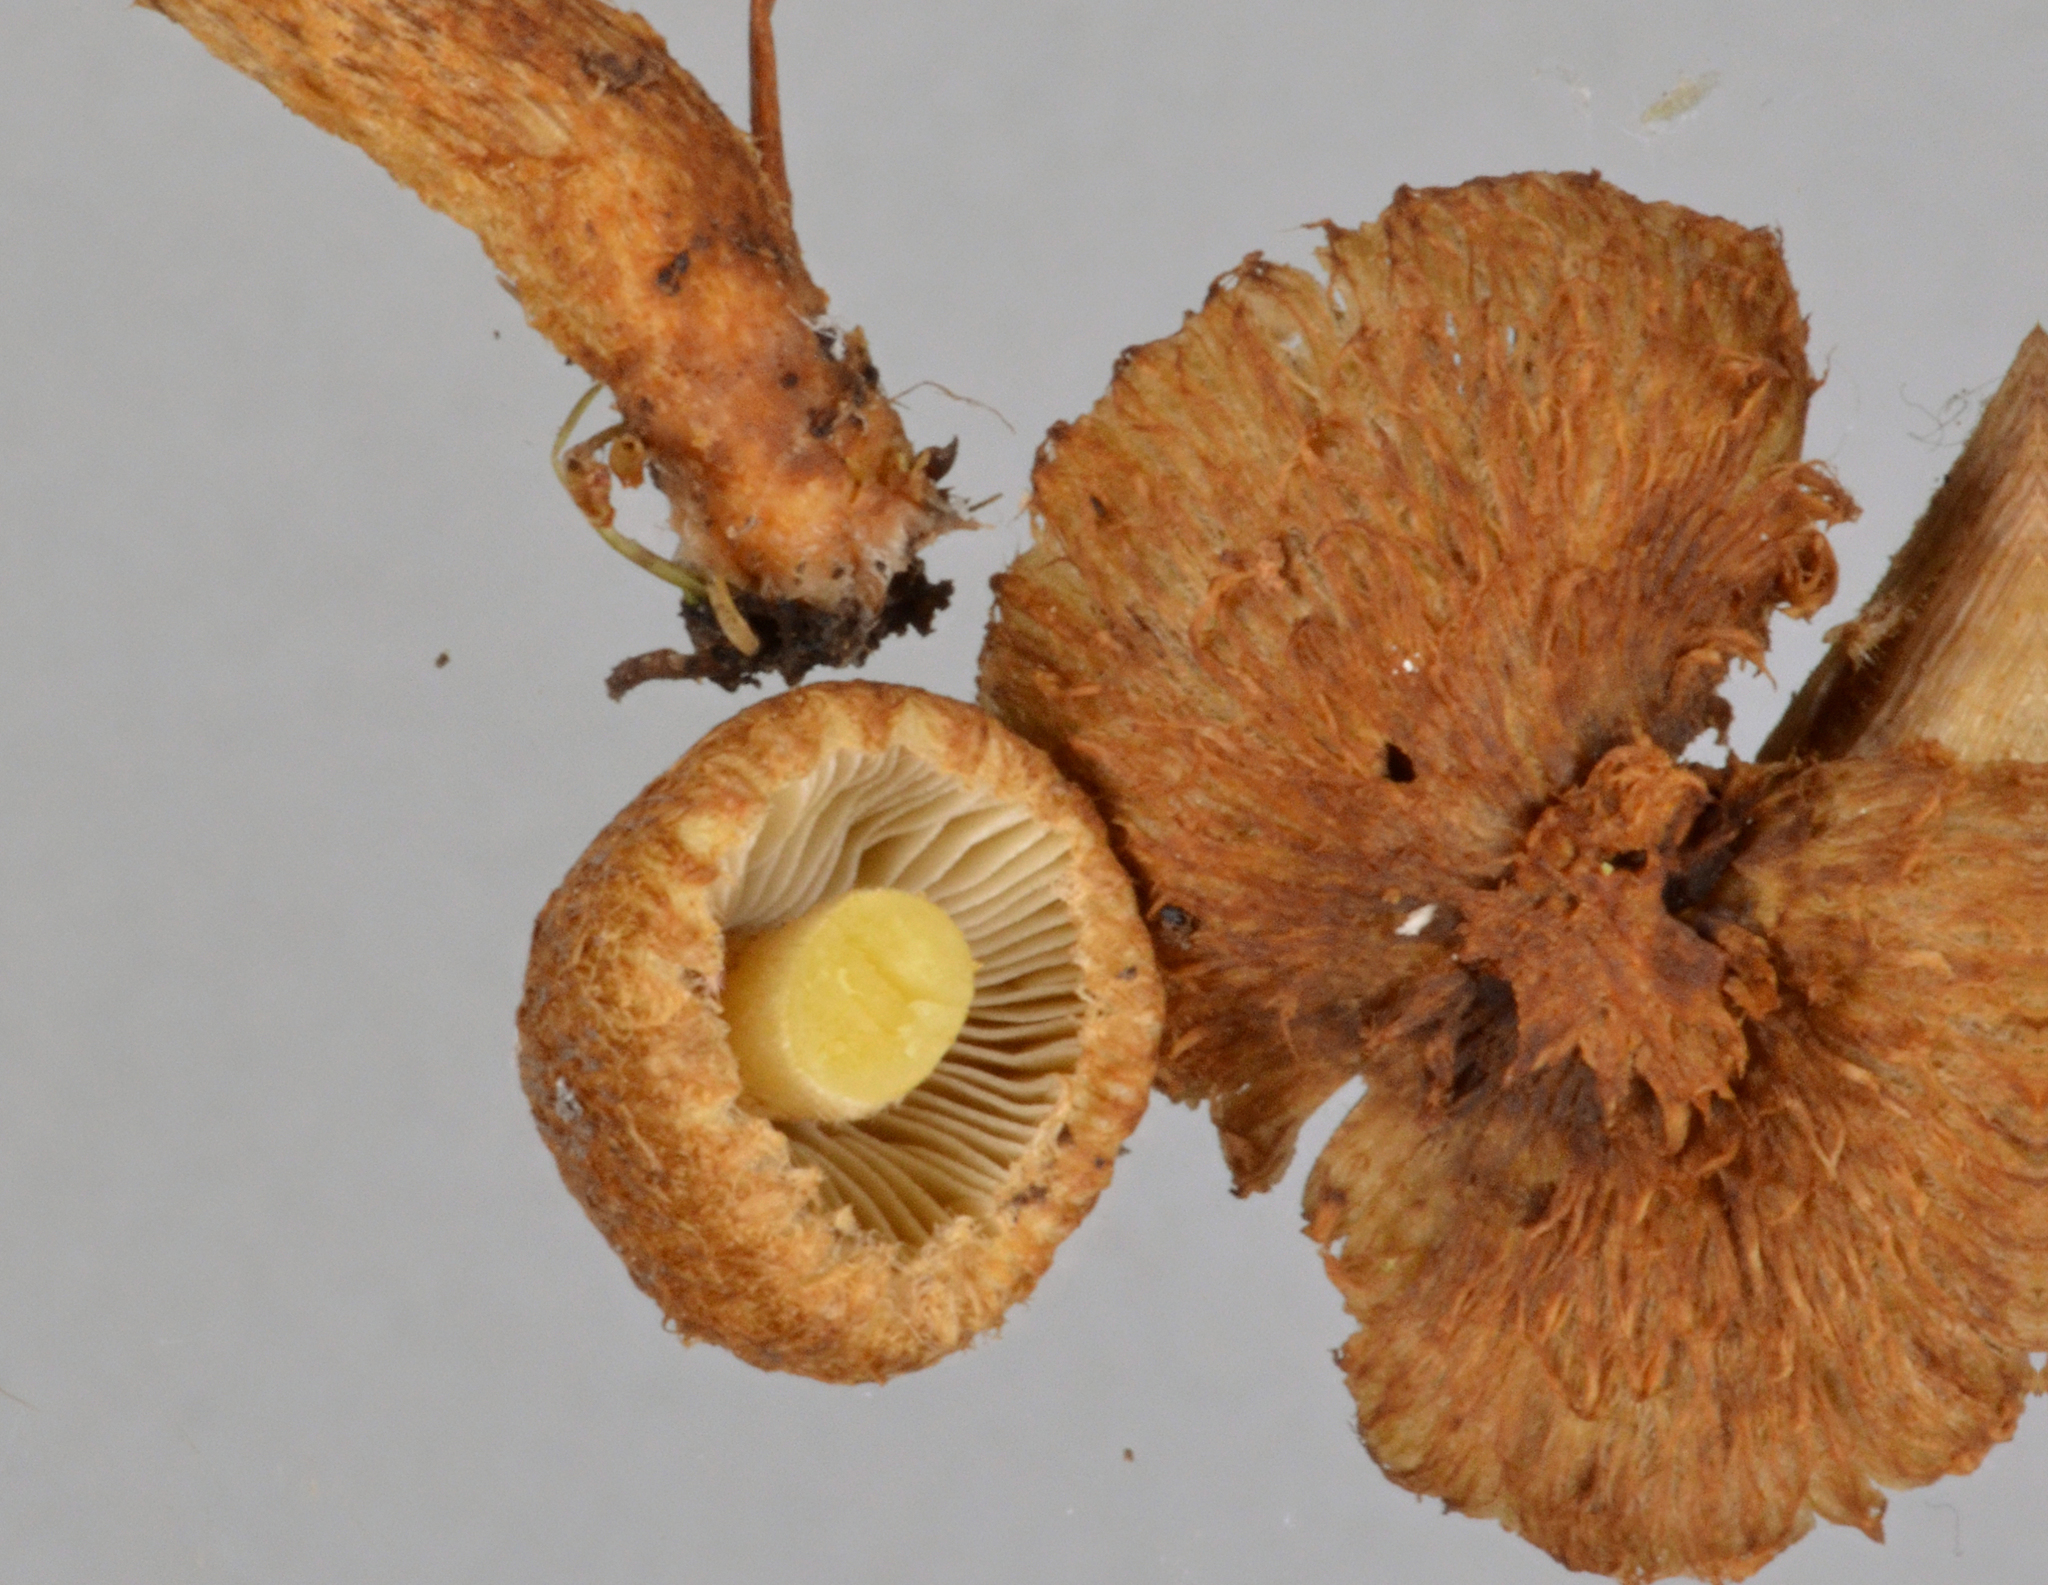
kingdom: Fungi
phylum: Basidiomycota
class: Agaricomycetes
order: Agaricales
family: Inocybaceae
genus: Inocybe
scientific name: Inocybe brunneolutea
